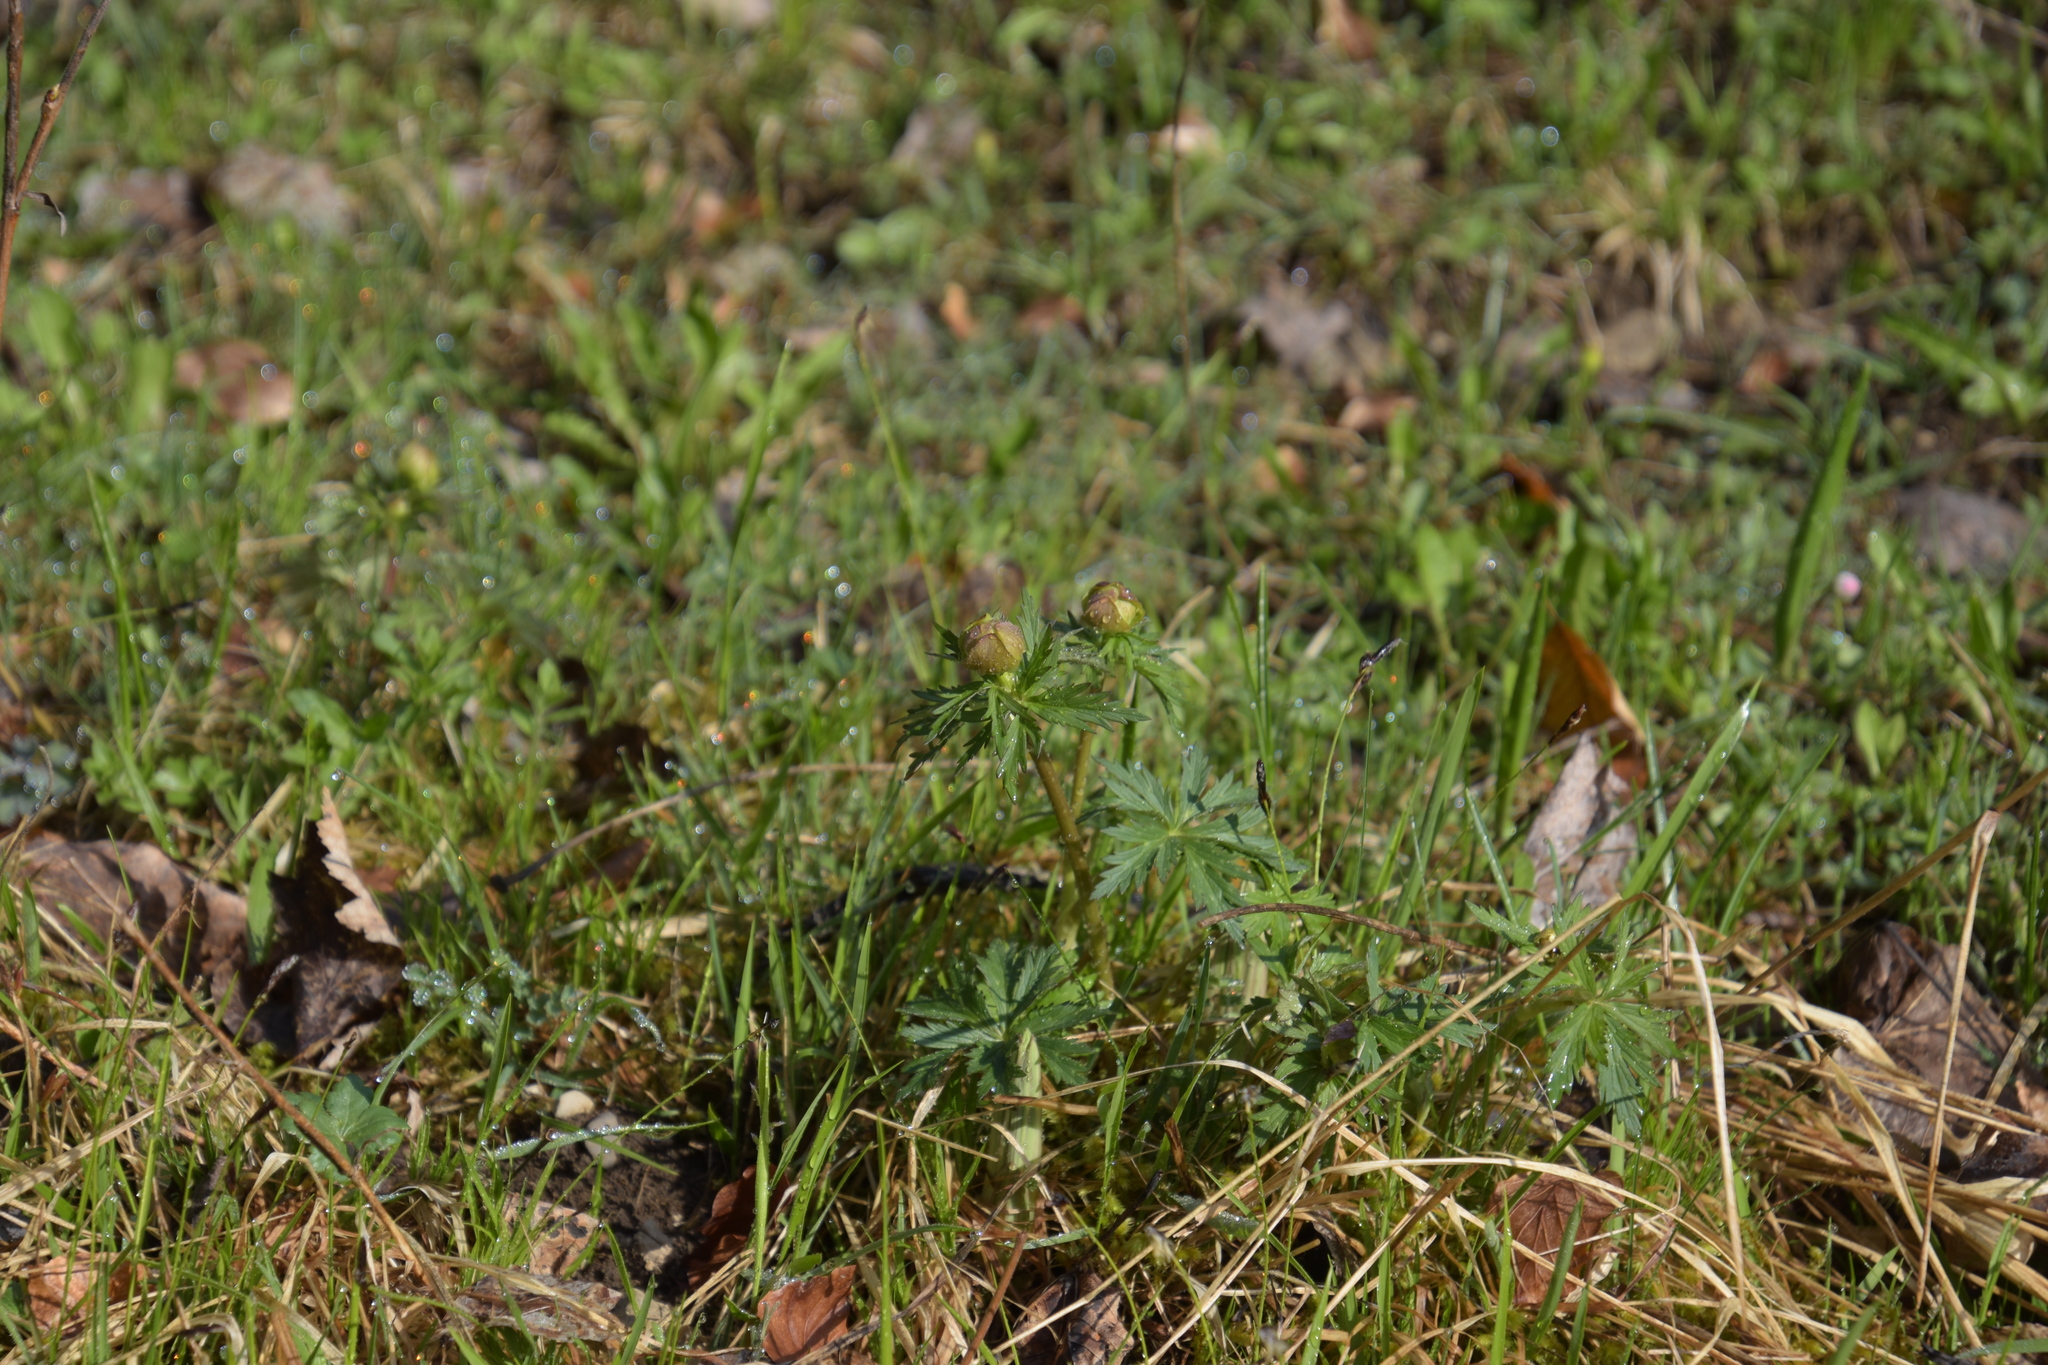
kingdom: Plantae
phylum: Tracheophyta
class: Magnoliopsida
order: Ranunculales
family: Ranunculaceae
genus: Trollius
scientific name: Trollius europaeus
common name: European globeflower
